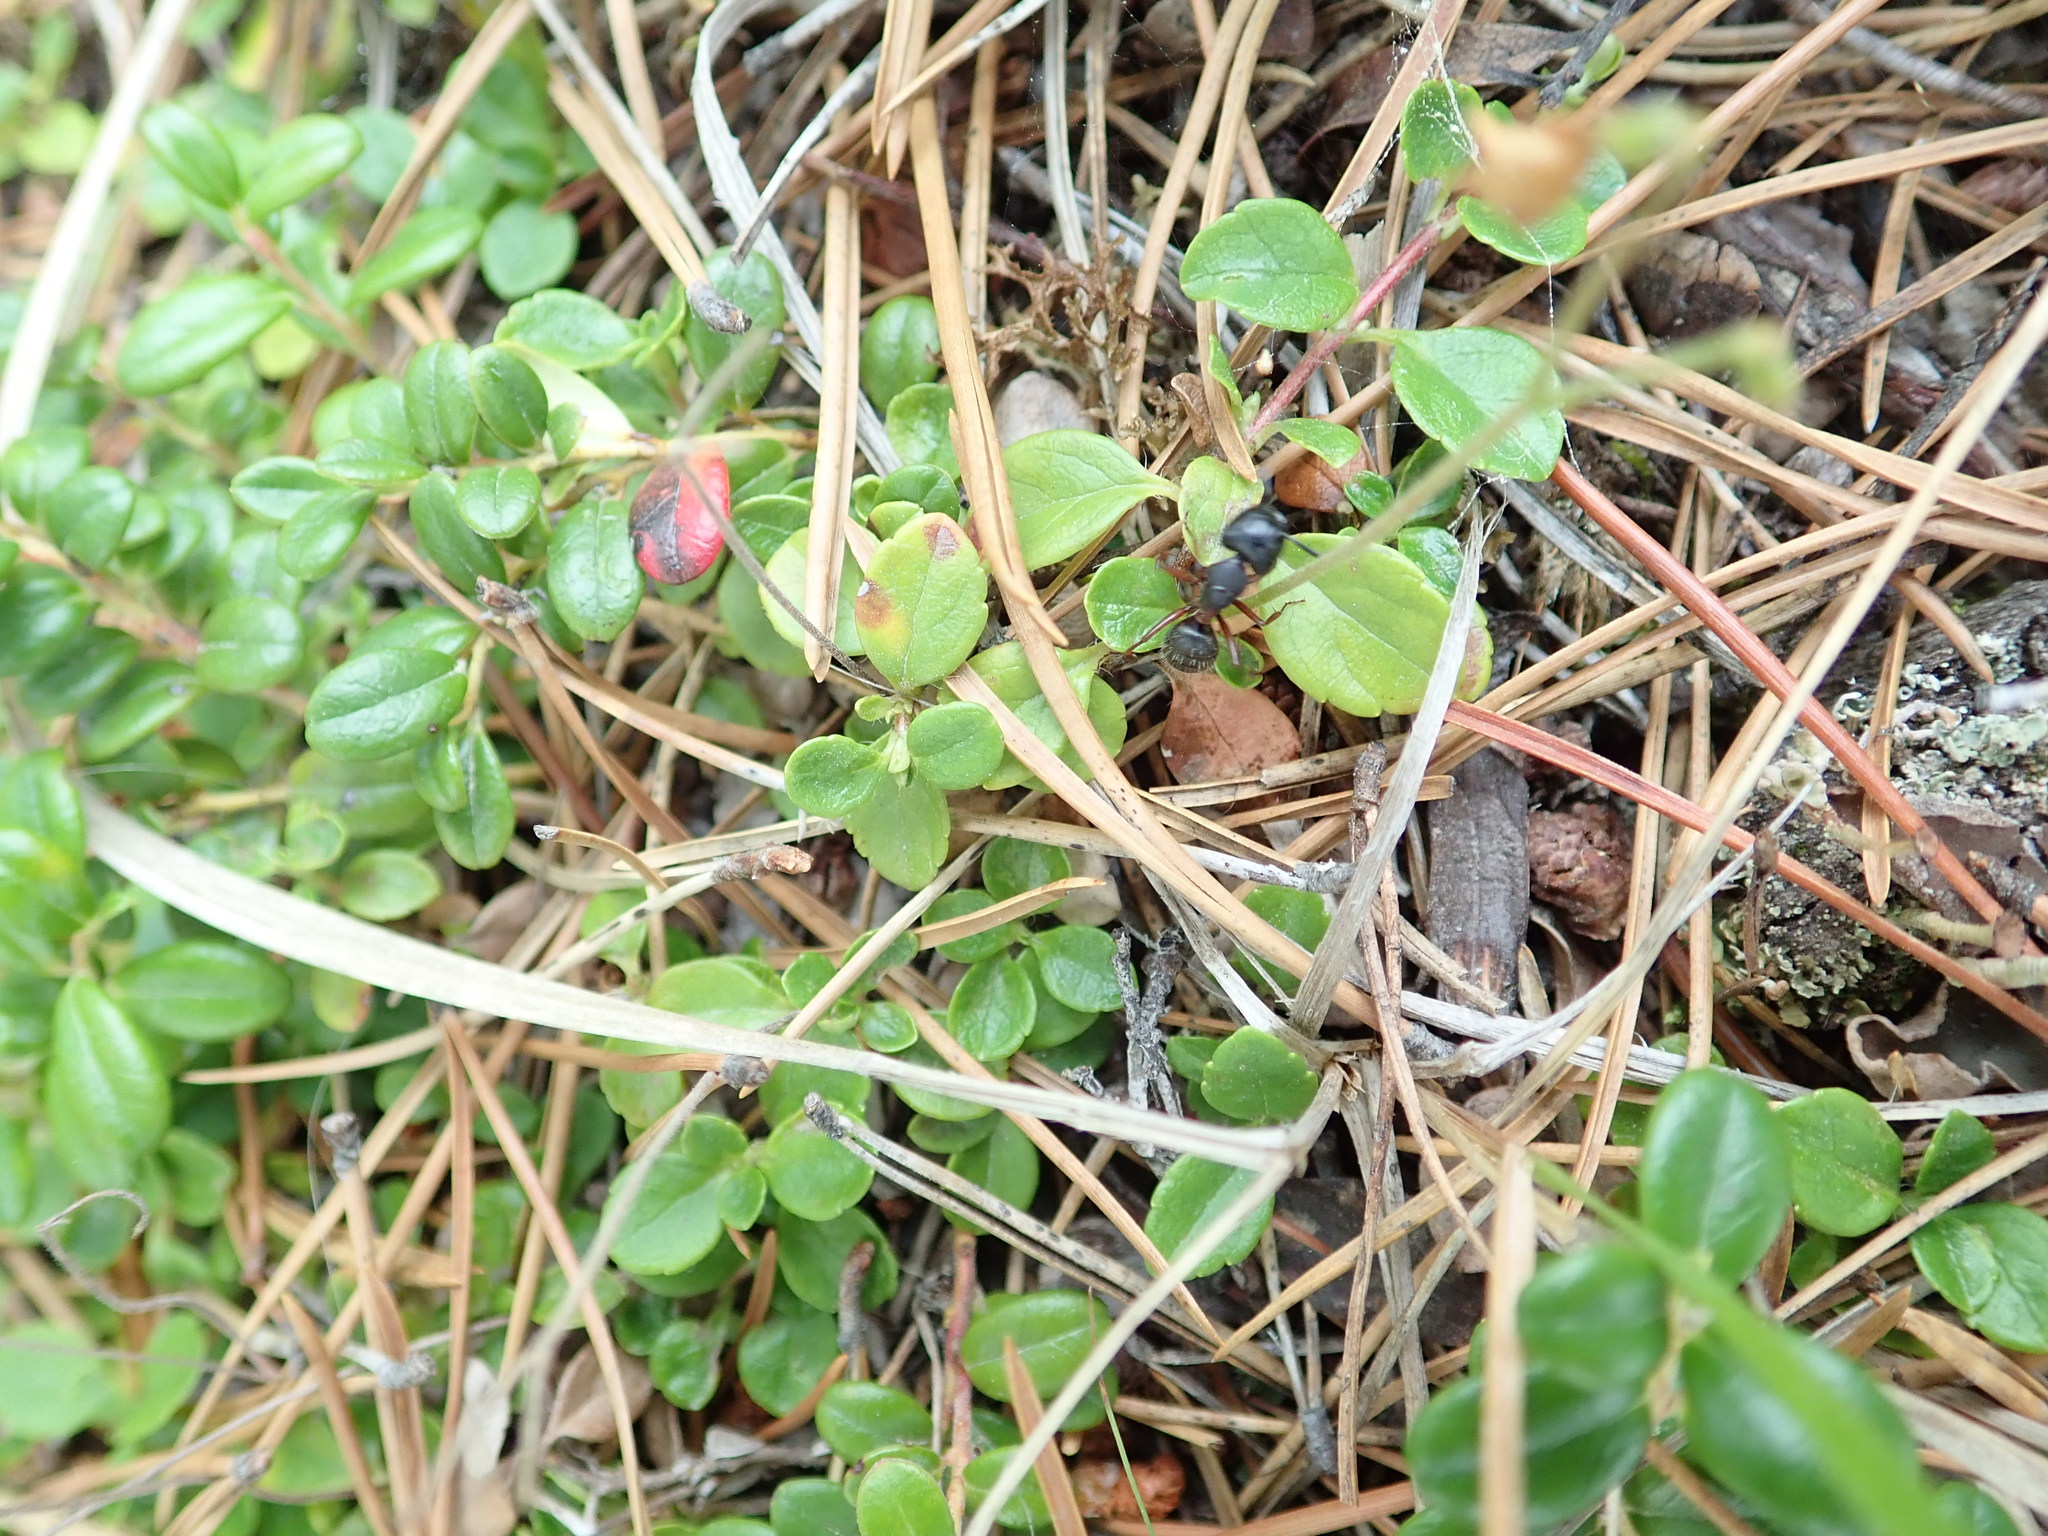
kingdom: Animalia
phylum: Arthropoda
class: Insecta
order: Hymenoptera
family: Formicidae
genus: Camponotus
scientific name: Camponotus herculeanus
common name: Hercules ant
